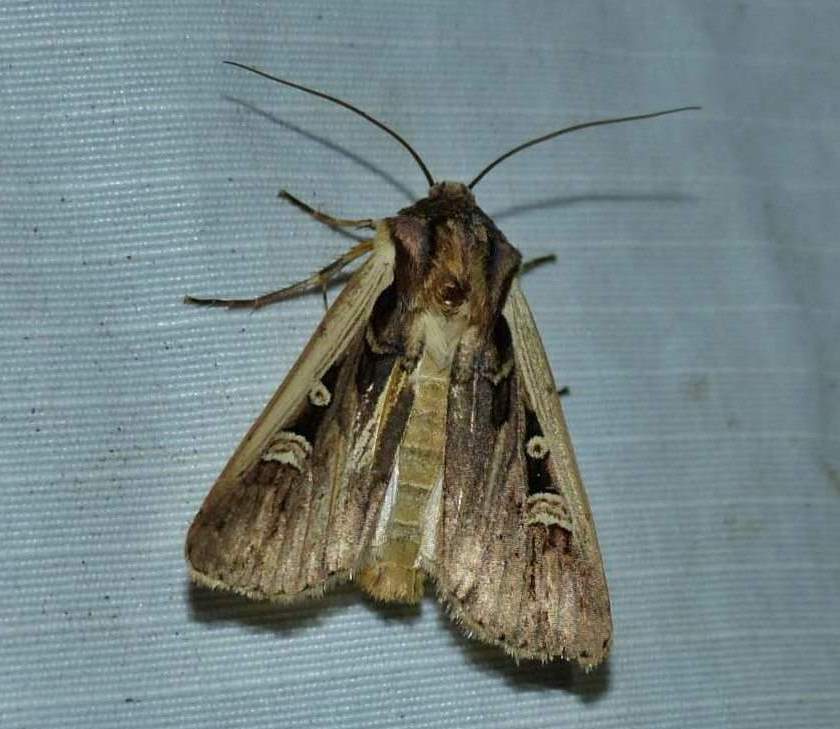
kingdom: Animalia
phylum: Arthropoda
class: Insecta
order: Lepidoptera
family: Noctuidae
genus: Striacosta
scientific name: Striacosta albicosta
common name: Western bean cutworm moth
